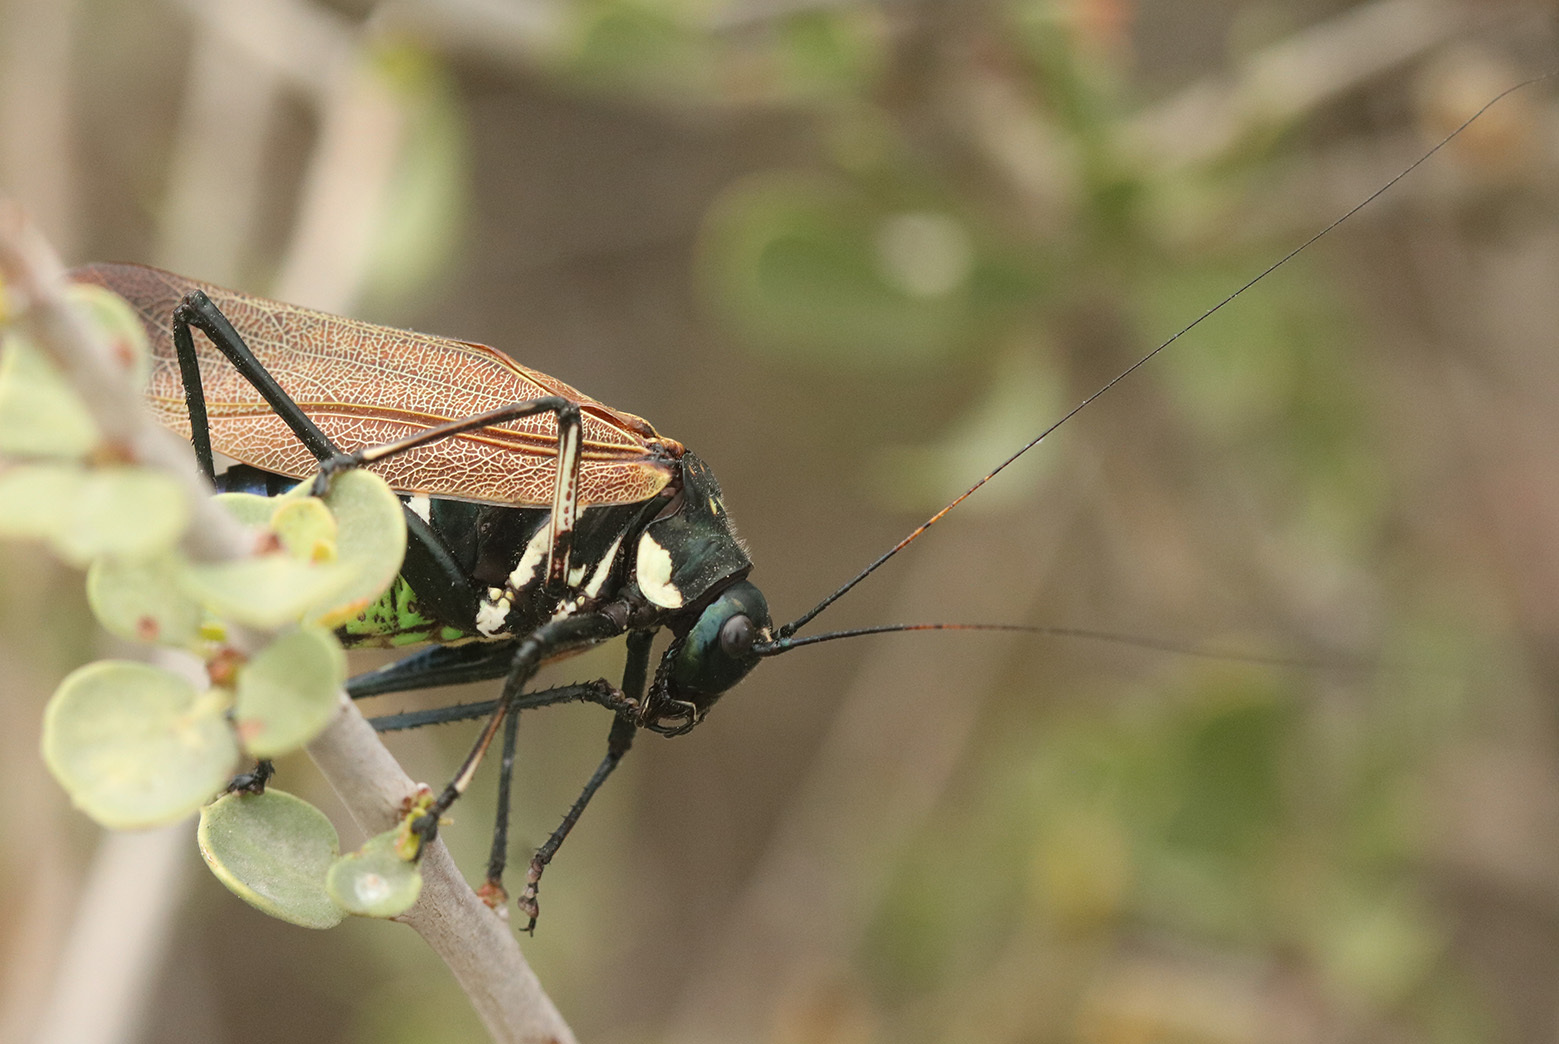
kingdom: Animalia
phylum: Arthropoda
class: Insecta
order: Orthoptera
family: Tettigoniidae
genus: Scaphura
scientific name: Scaphura elegans
